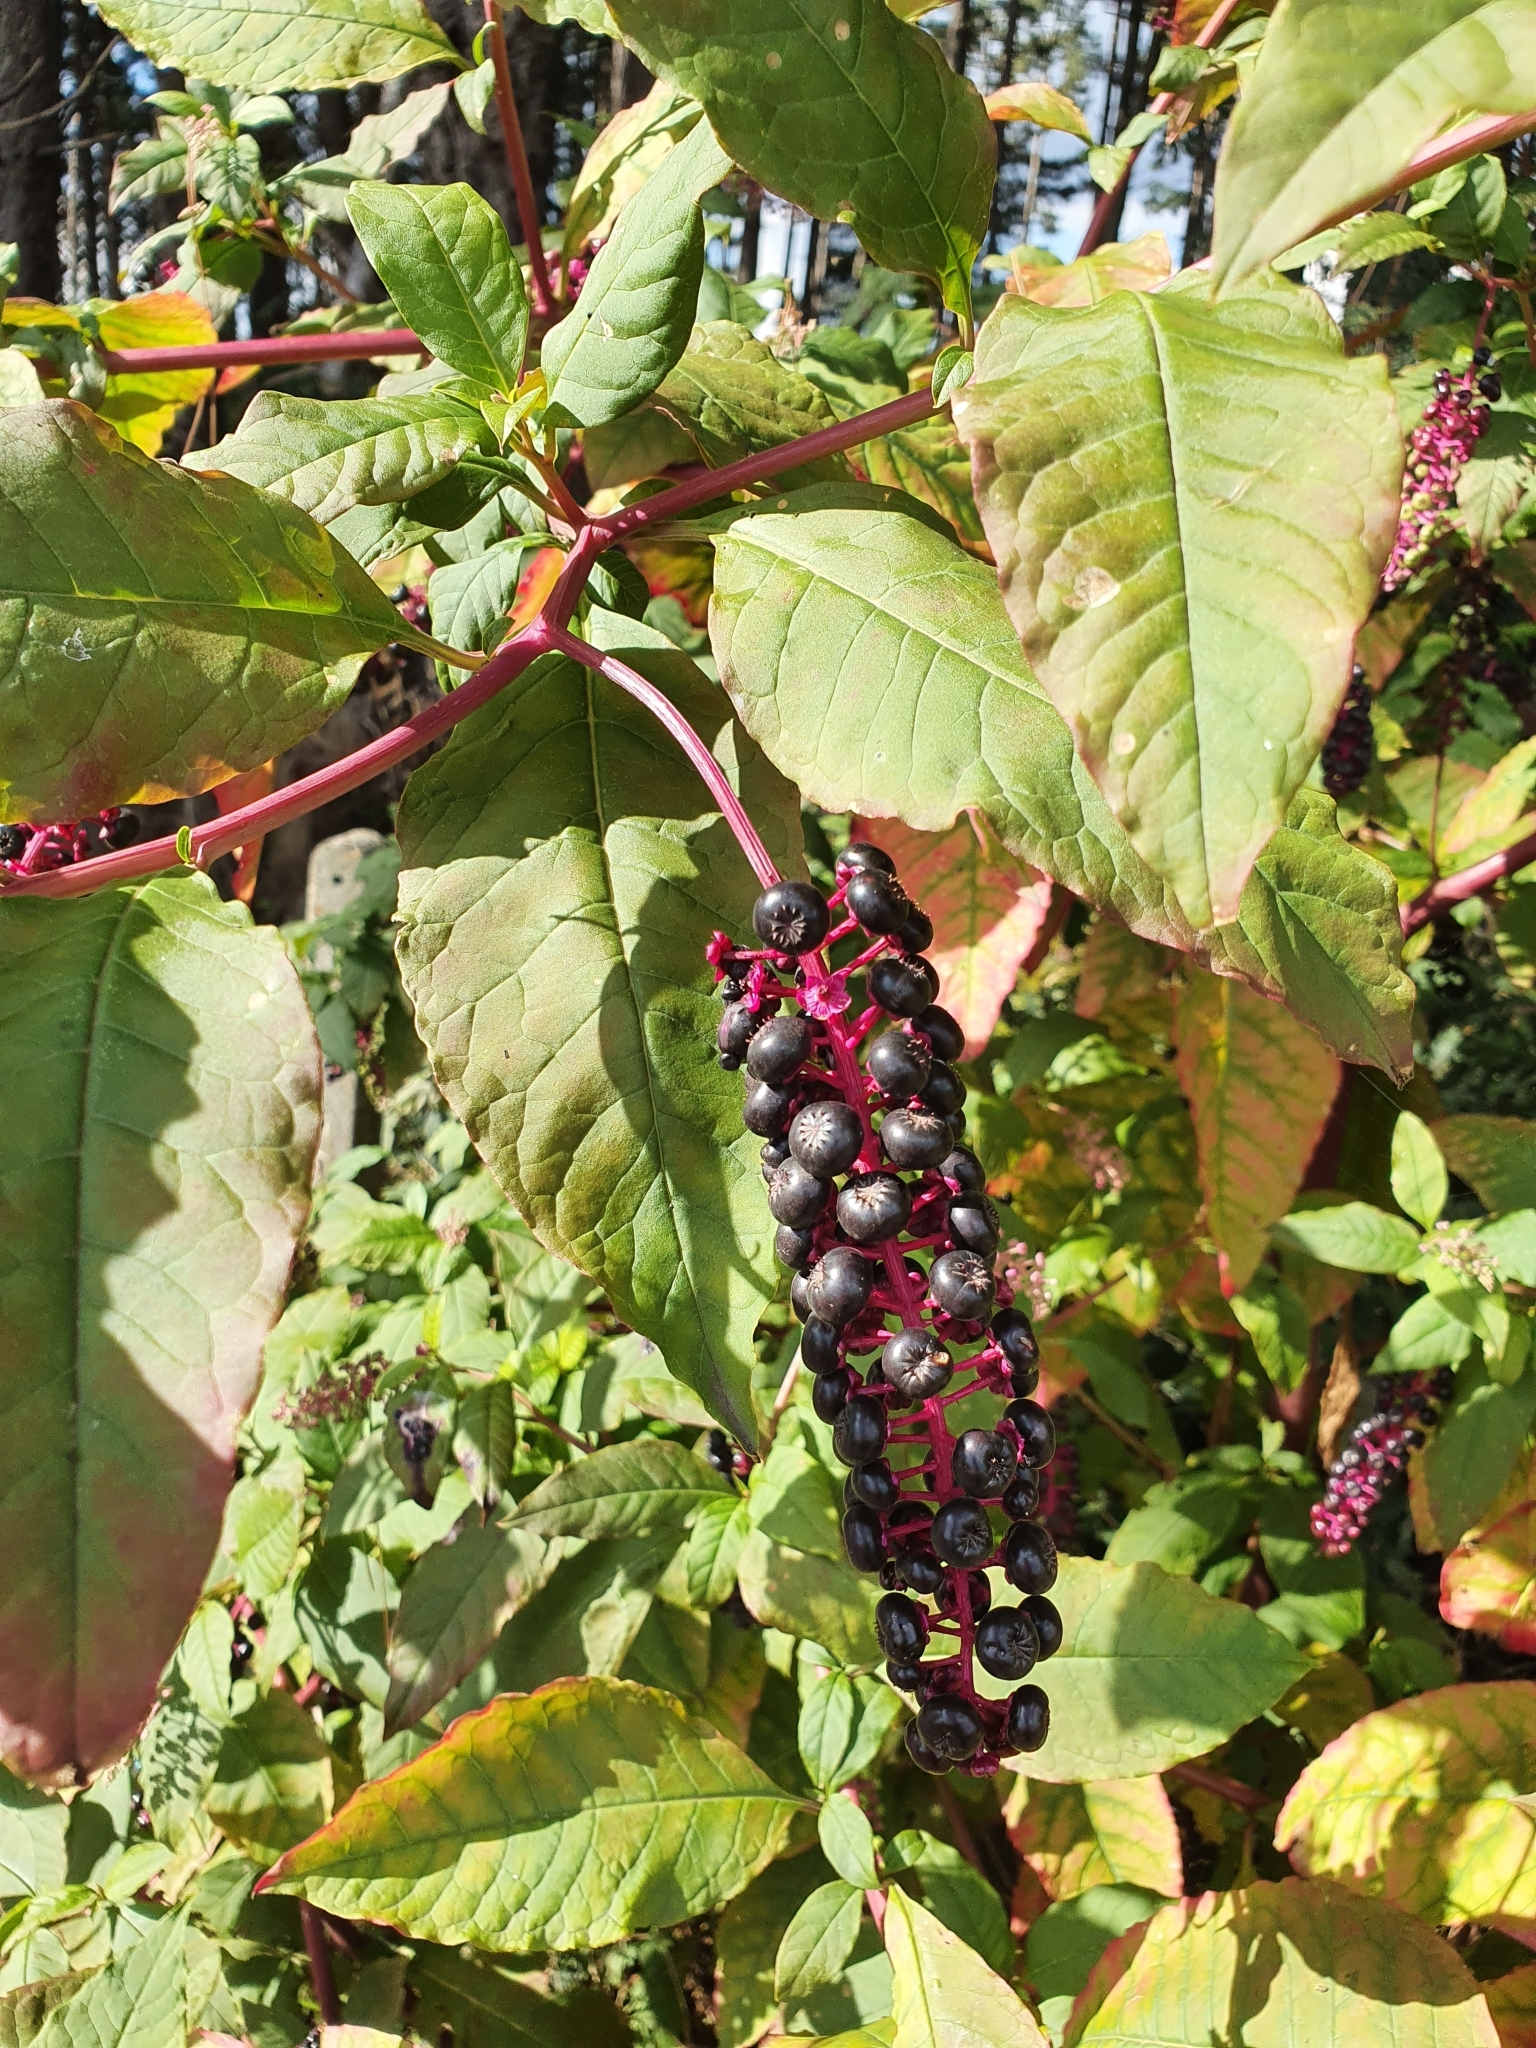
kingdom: Plantae
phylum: Tracheophyta
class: Magnoliopsida
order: Caryophyllales
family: Phytolaccaceae
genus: Phytolacca
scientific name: Phytolacca americana
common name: American pokeweed
